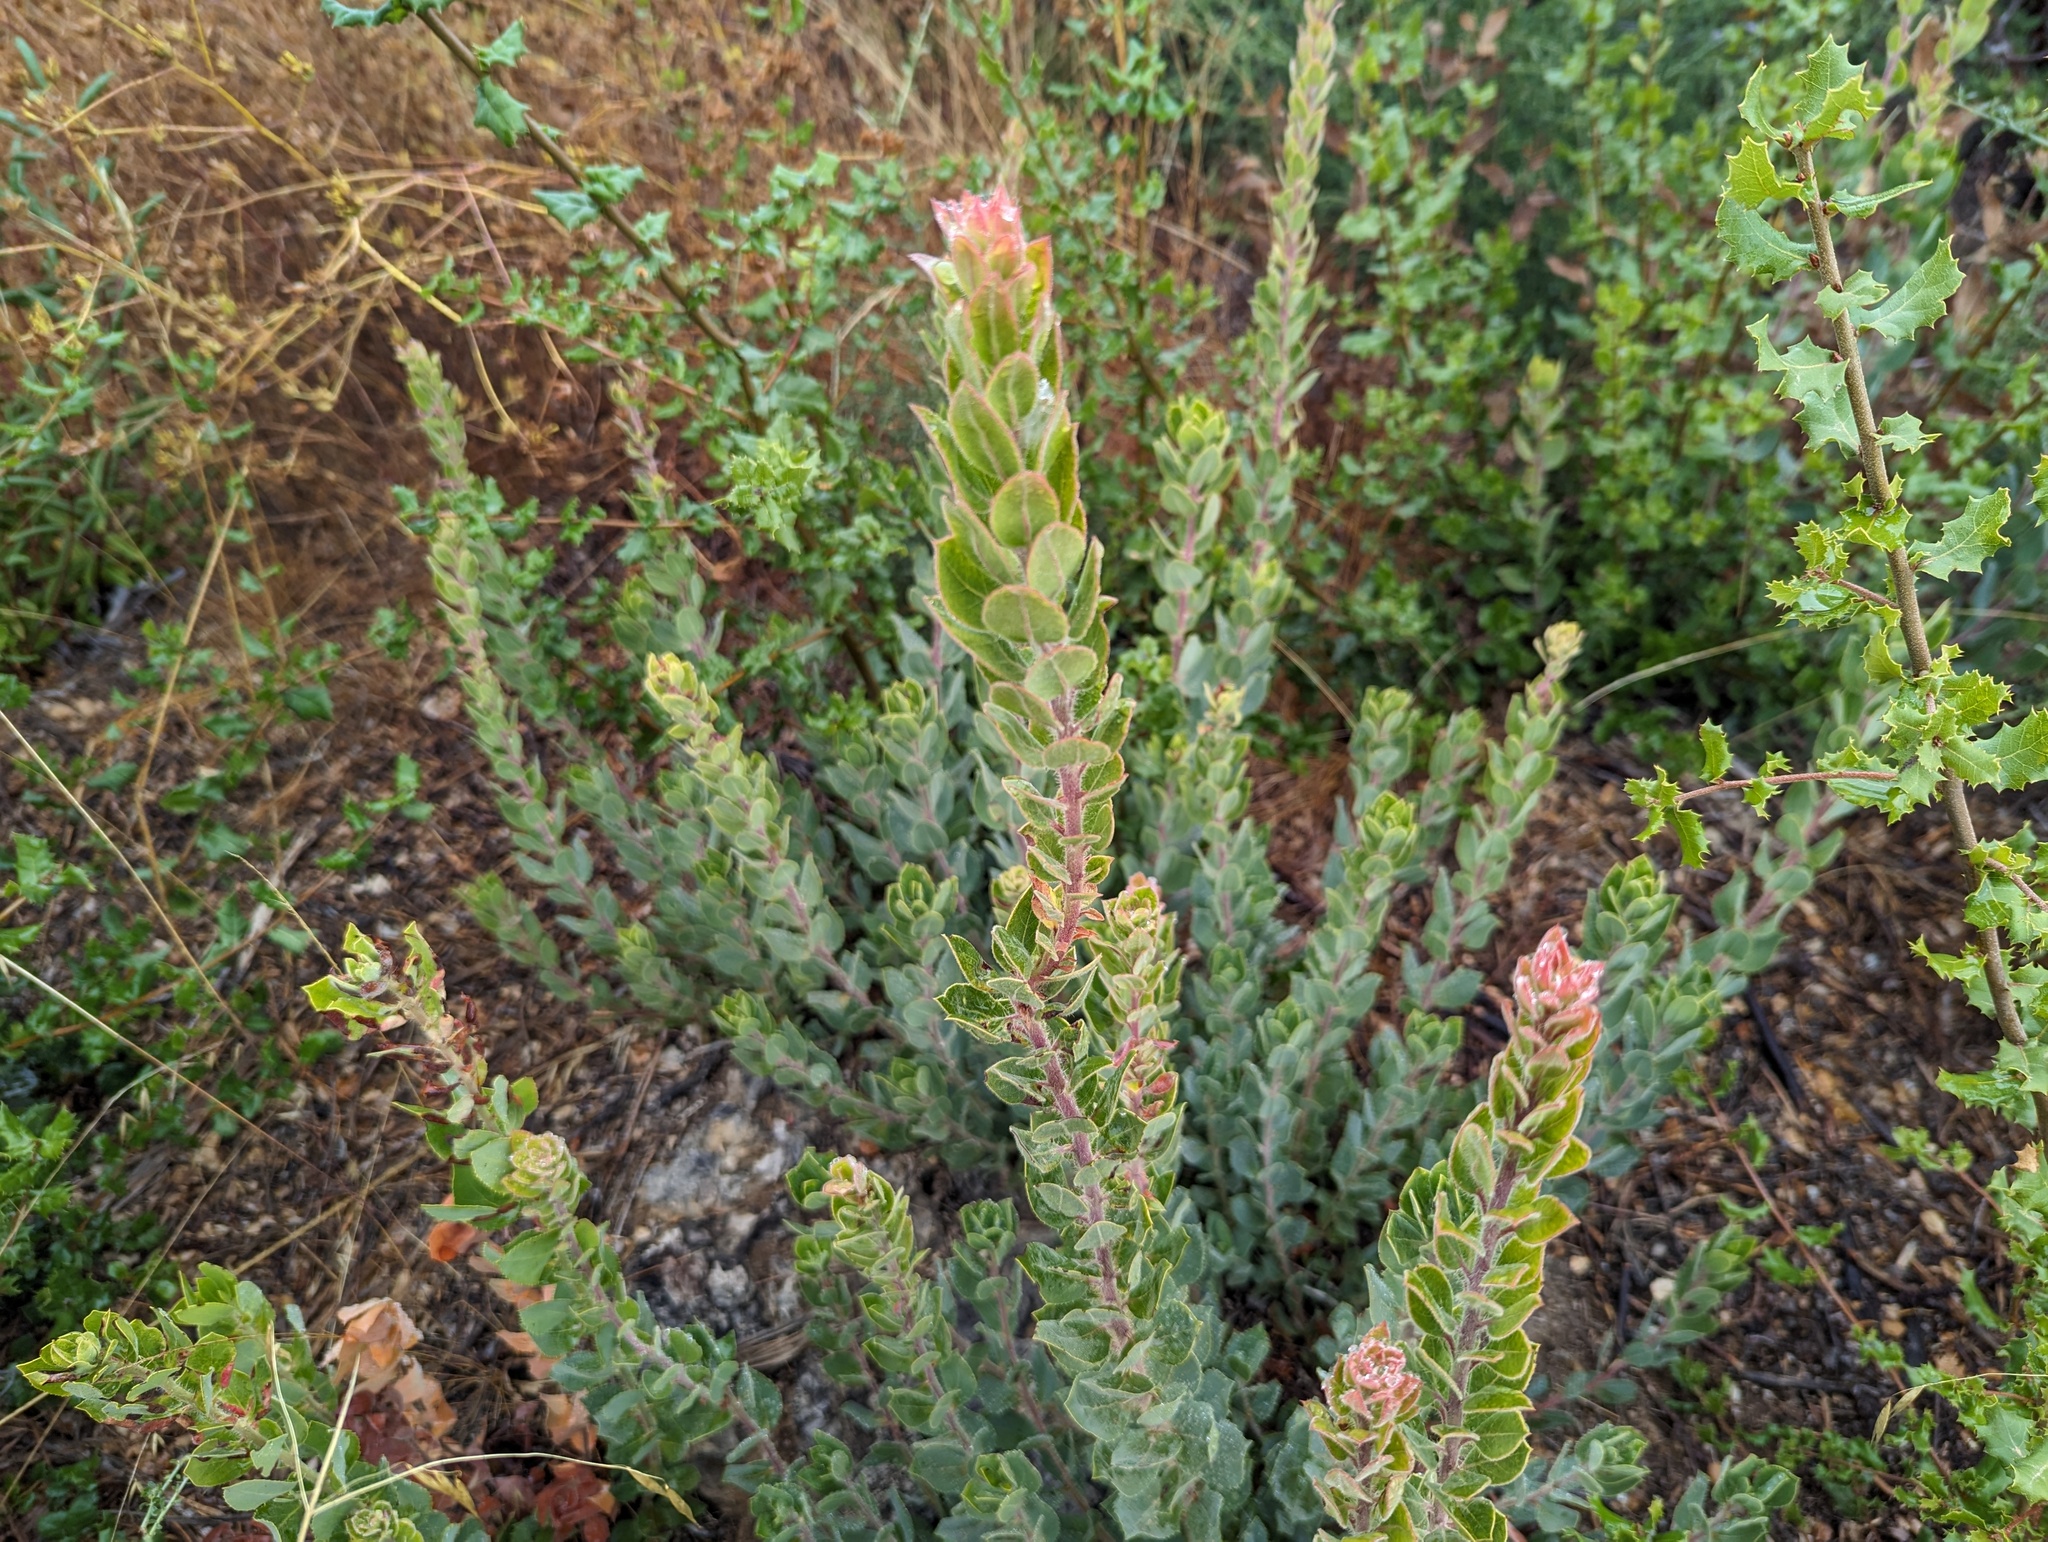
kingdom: Plantae
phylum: Tracheophyta
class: Magnoliopsida
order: Ericales
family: Ericaceae
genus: Arctostaphylos
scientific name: Arctostaphylos crustacea
